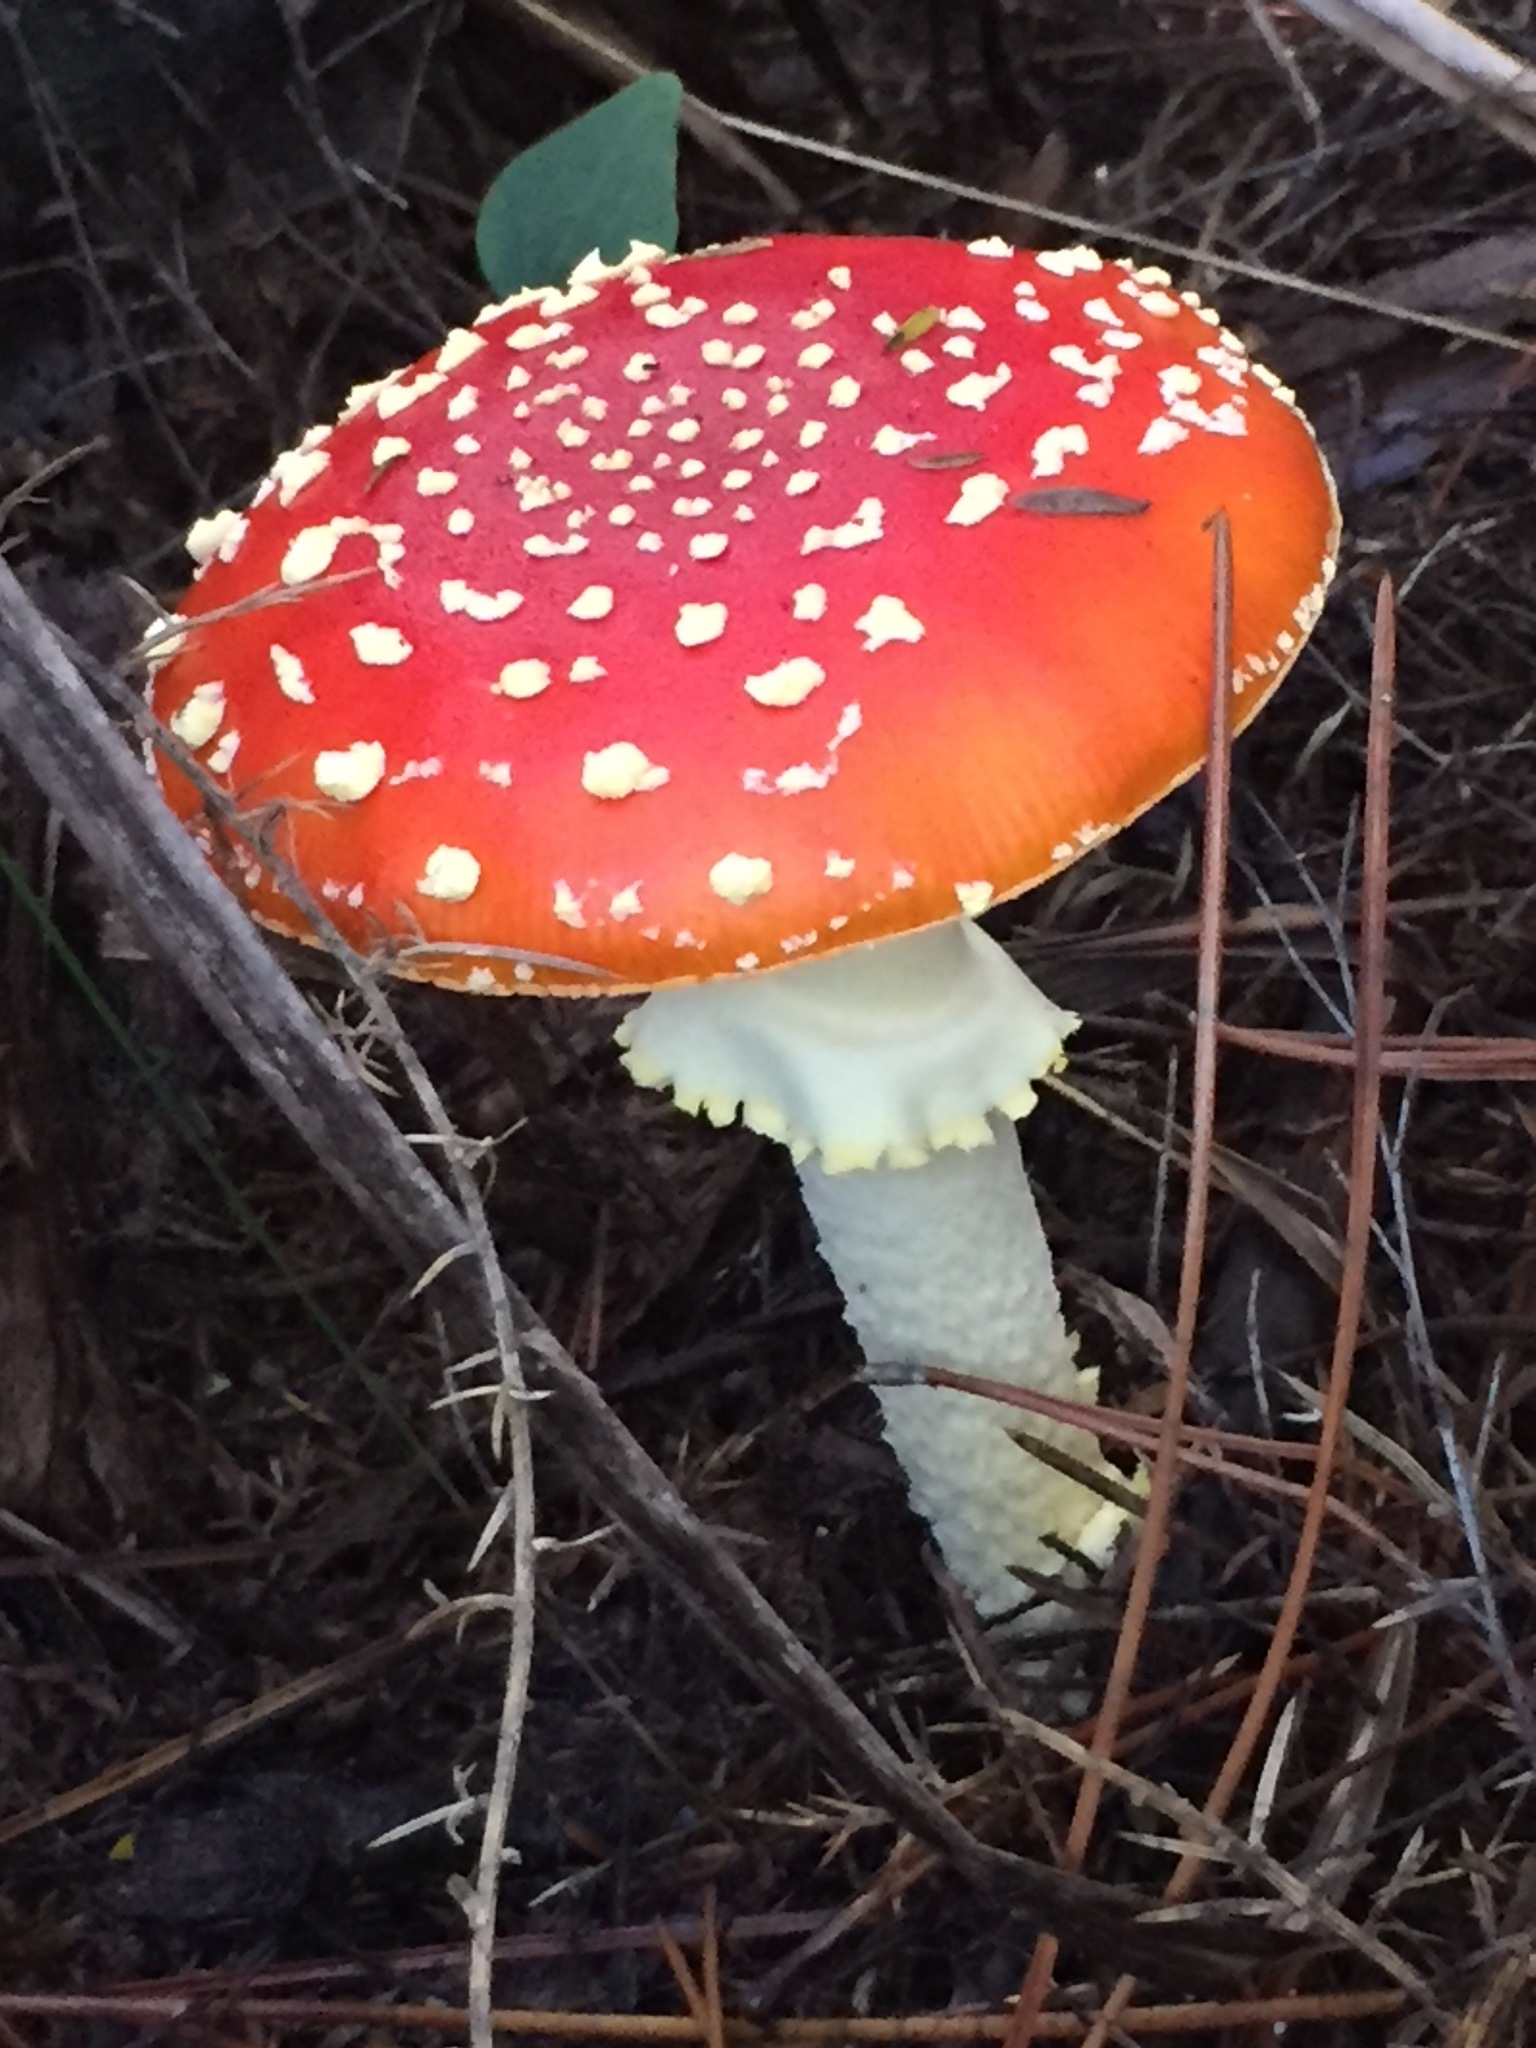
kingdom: Fungi
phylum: Basidiomycota
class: Agaricomycetes
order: Agaricales
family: Amanitaceae
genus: Amanita
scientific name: Amanita muscaria
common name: Fly agaric
